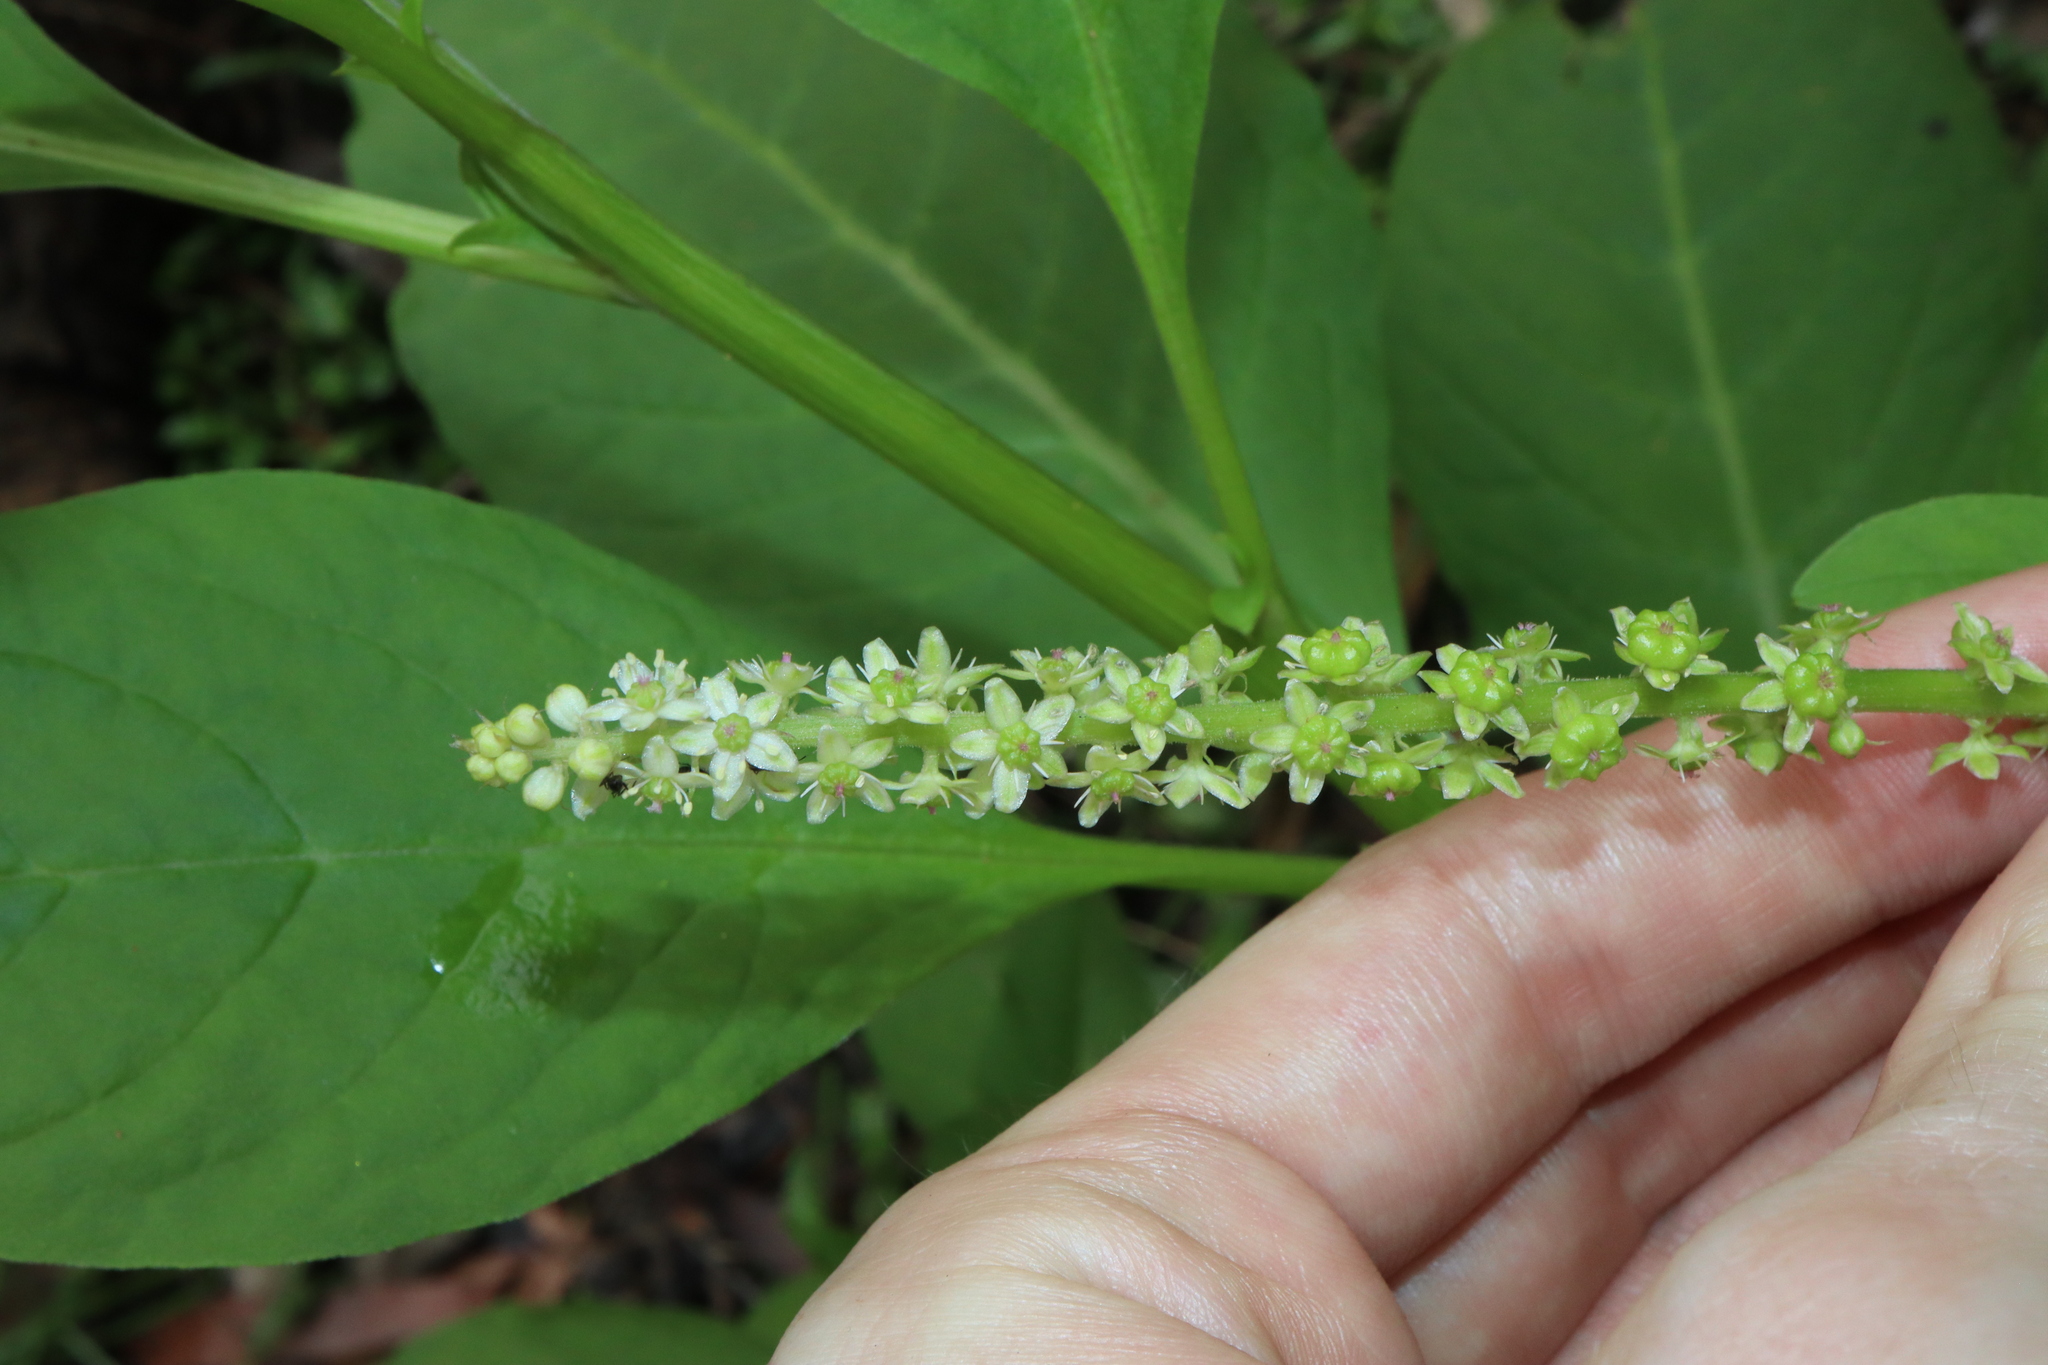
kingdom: Plantae
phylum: Tracheophyta
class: Magnoliopsida
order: Caryophyllales
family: Phytolaccaceae
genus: Phytolacca
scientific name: Phytolacca icosandra
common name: Button pokeweed
